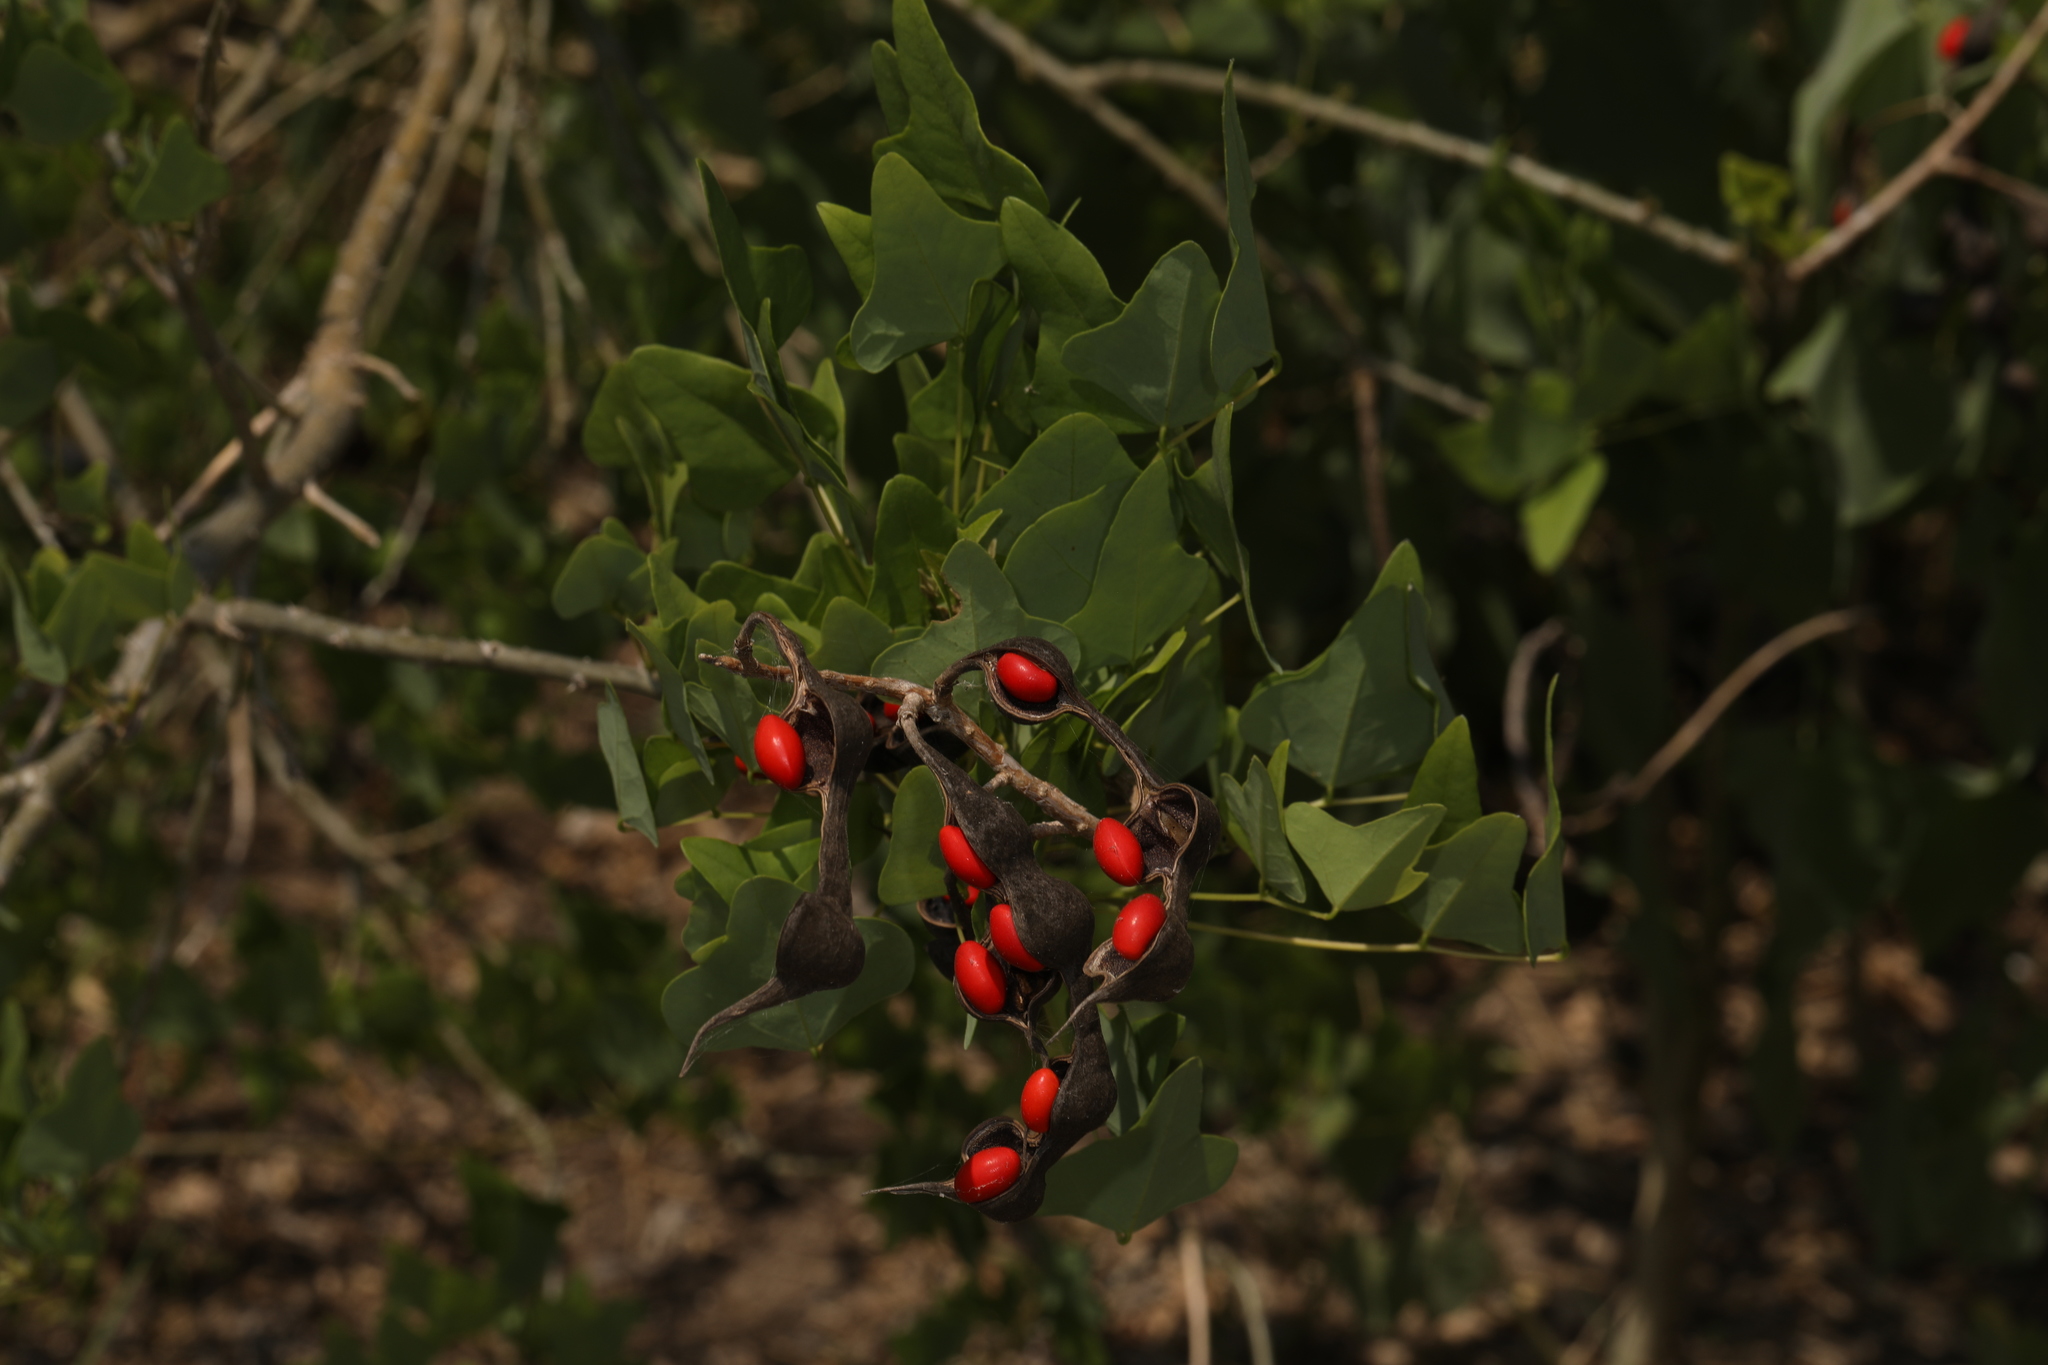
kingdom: Plantae
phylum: Tracheophyta
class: Magnoliopsida
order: Fabales
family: Fabaceae
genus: Erythrina
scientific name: Erythrina herbacea
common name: Coral-bean
